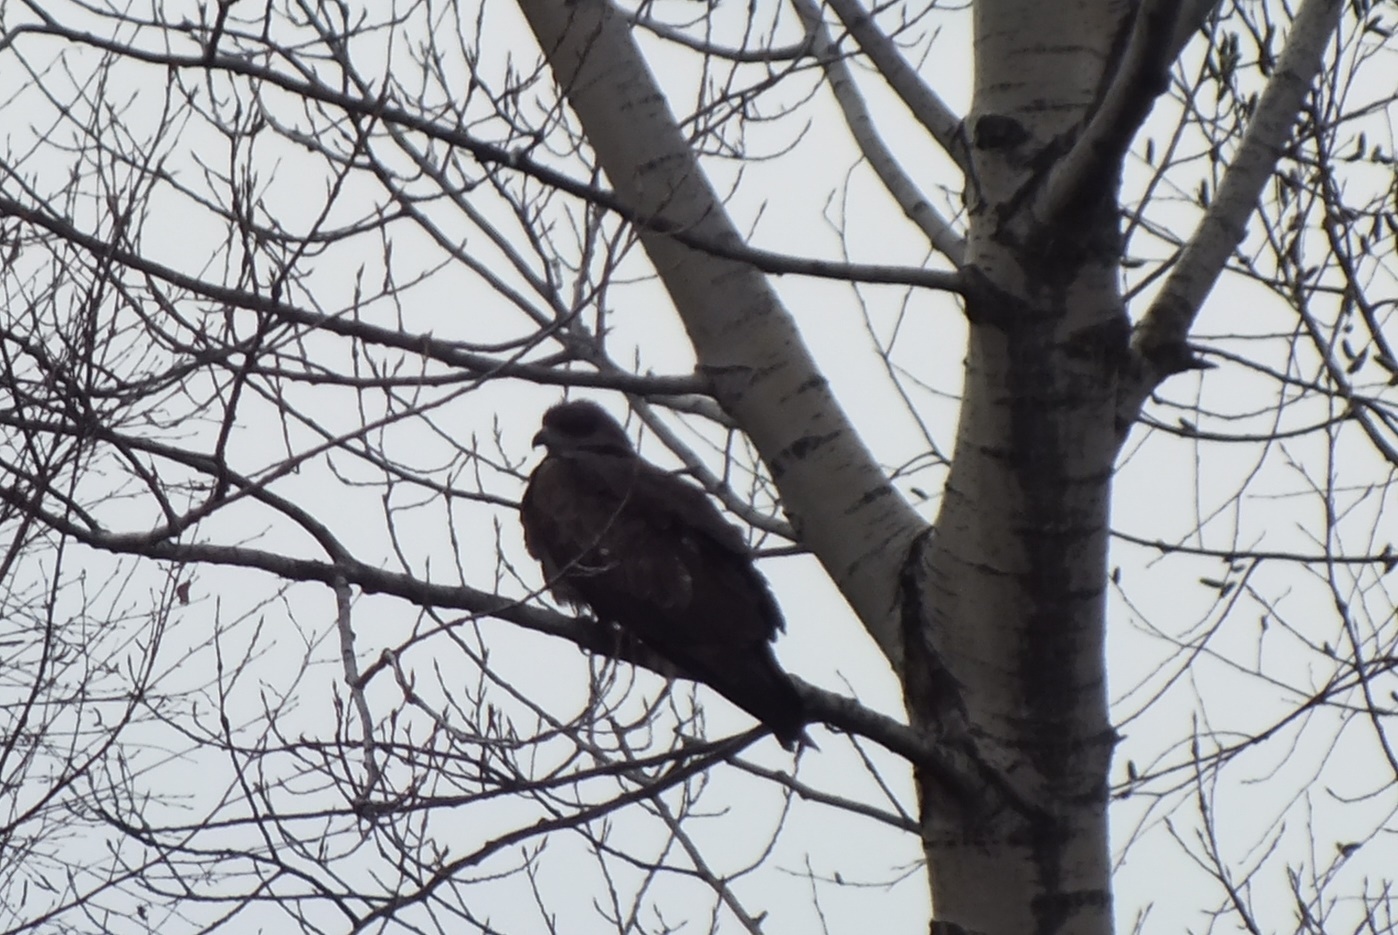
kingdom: Animalia
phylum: Chordata
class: Aves
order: Accipitriformes
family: Accipitridae
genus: Milvus
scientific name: Milvus migrans
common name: Black kite
